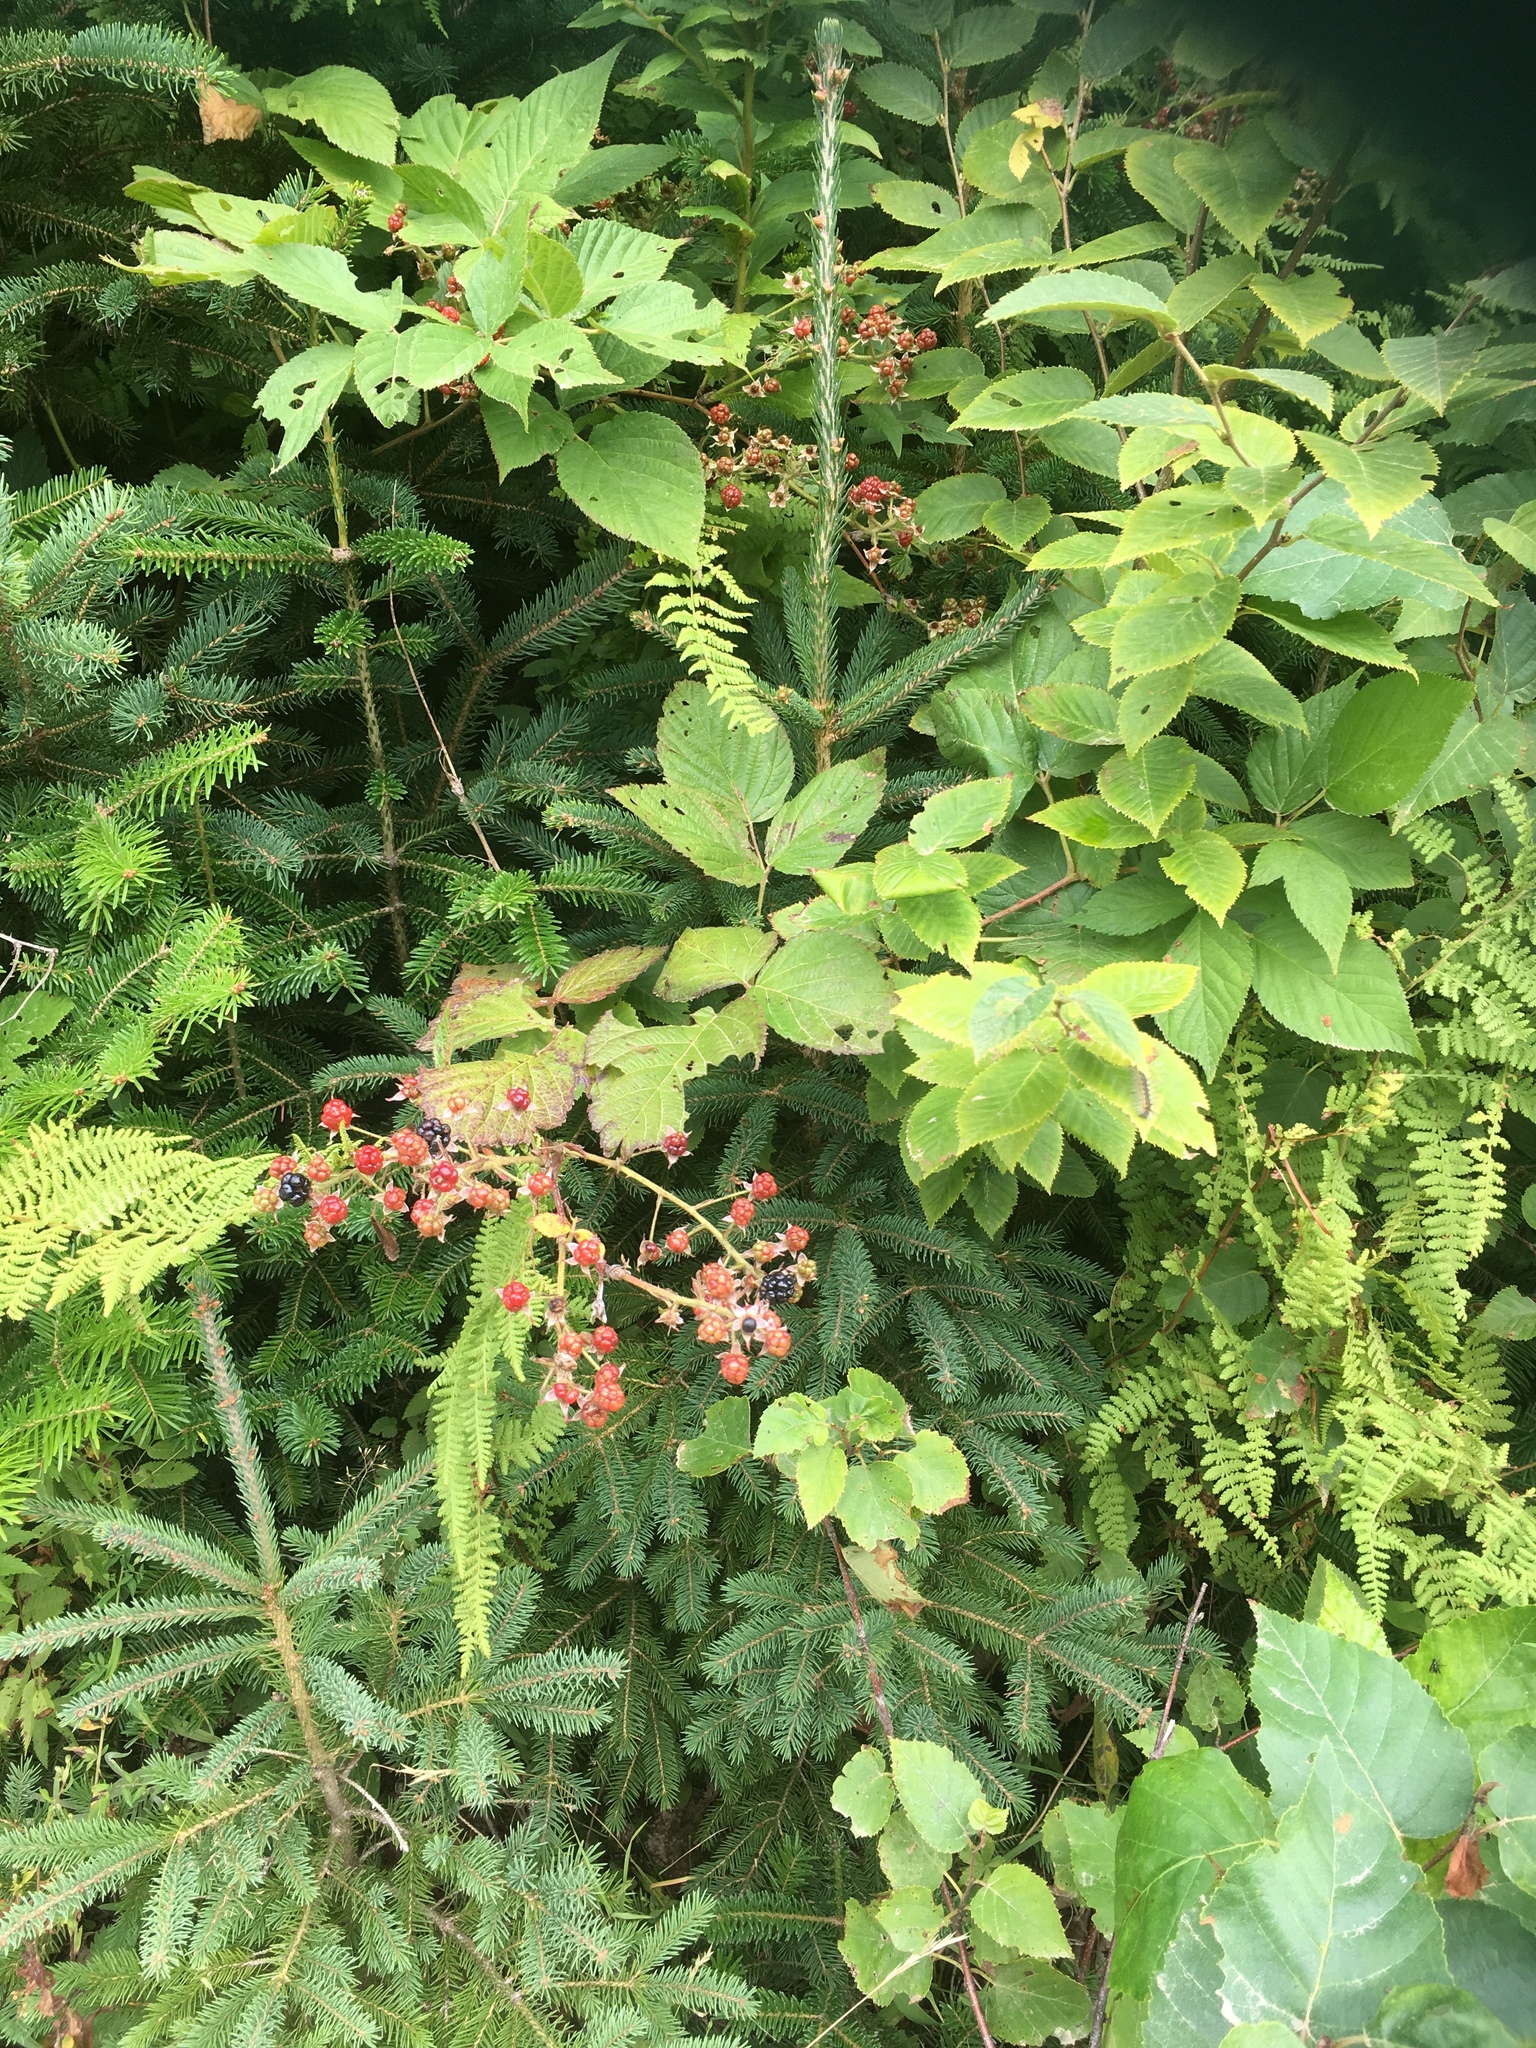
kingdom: Plantae
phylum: Tracheophyta
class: Magnoliopsida
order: Rosales
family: Rosaceae
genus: Rubus
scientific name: Rubus allegheniensis
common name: Allegheny blackberry
